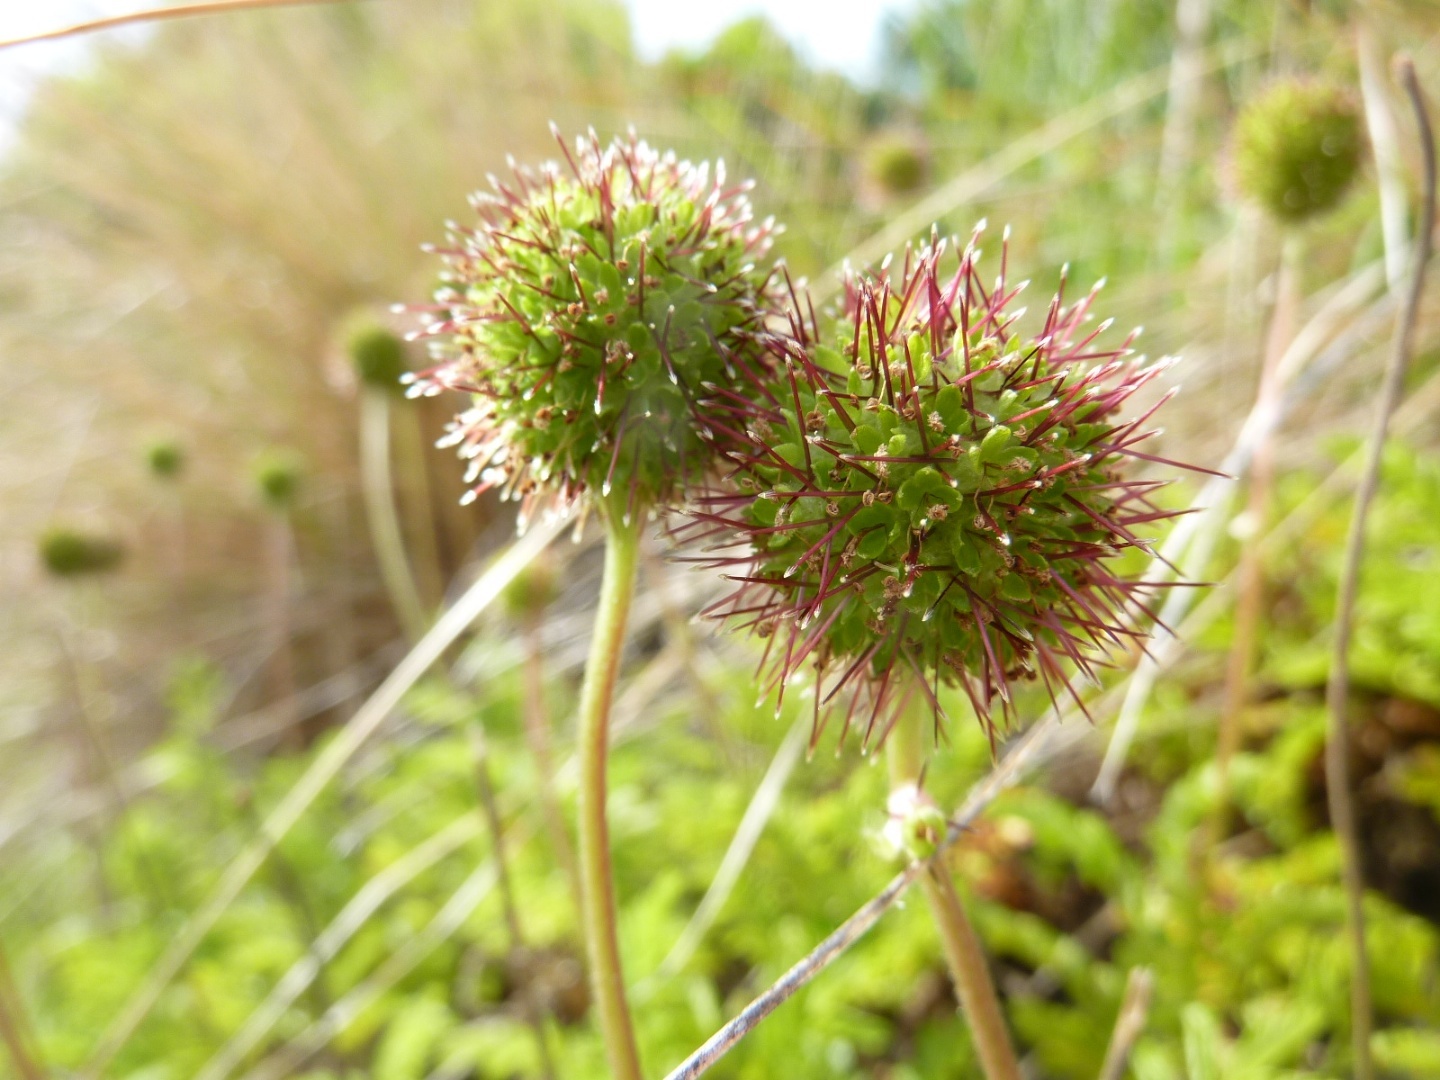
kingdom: Plantae
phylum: Tracheophyta
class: Magnoliopsida
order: Rosales
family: Rosaceae
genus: Acaena
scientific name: Acaena novae-zelandiae
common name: Pirri-pirri-bur
